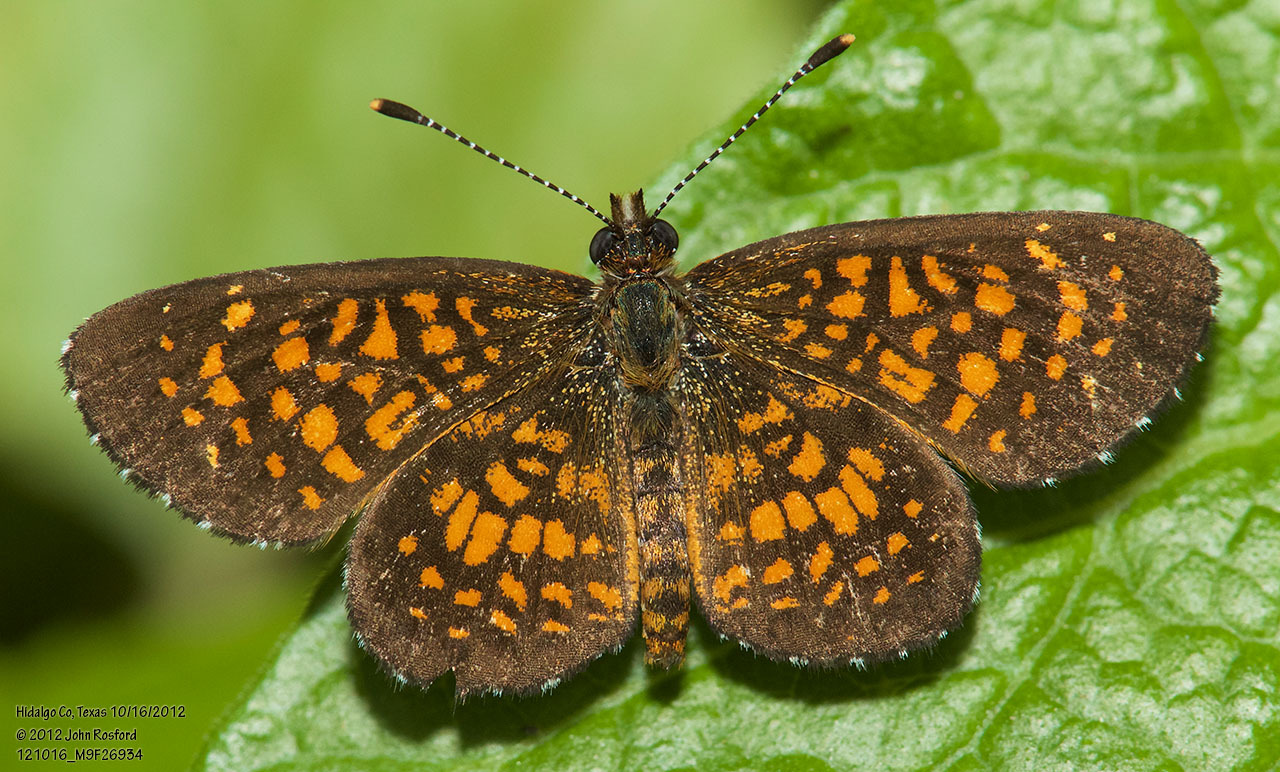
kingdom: Animalia
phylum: Arthropoda
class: Insecta
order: Lepidoptera
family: Nymphalidae
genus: Texola
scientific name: Texola elada
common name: Elada checkerspot
